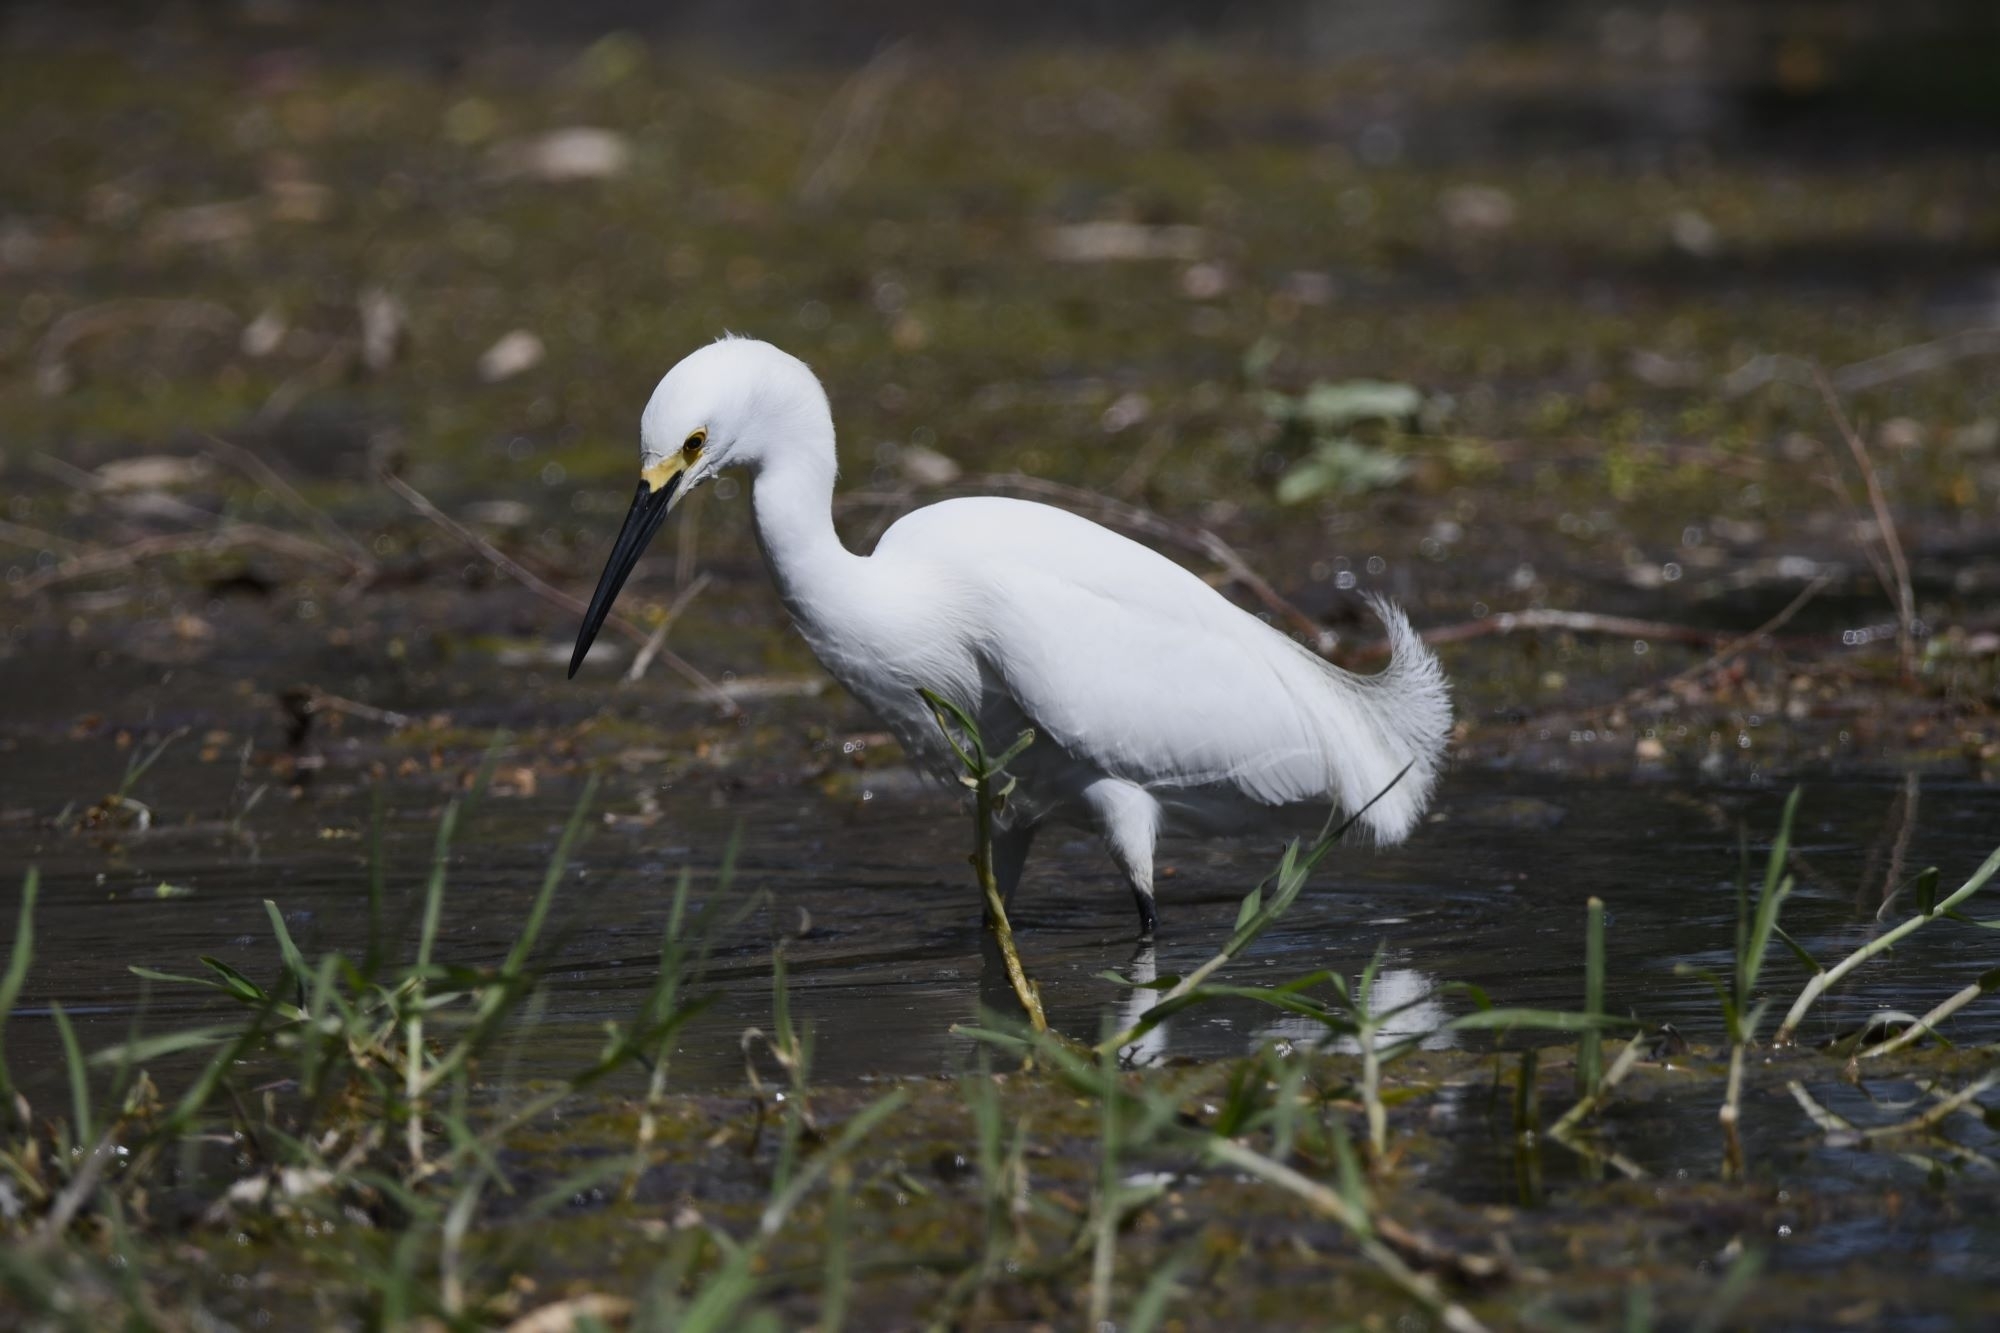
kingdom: Animalia
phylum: Chordata
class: Aves
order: Pelecaniformes
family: Ardeidae
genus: Egretta
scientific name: Egretta thula
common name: Snowy egret
